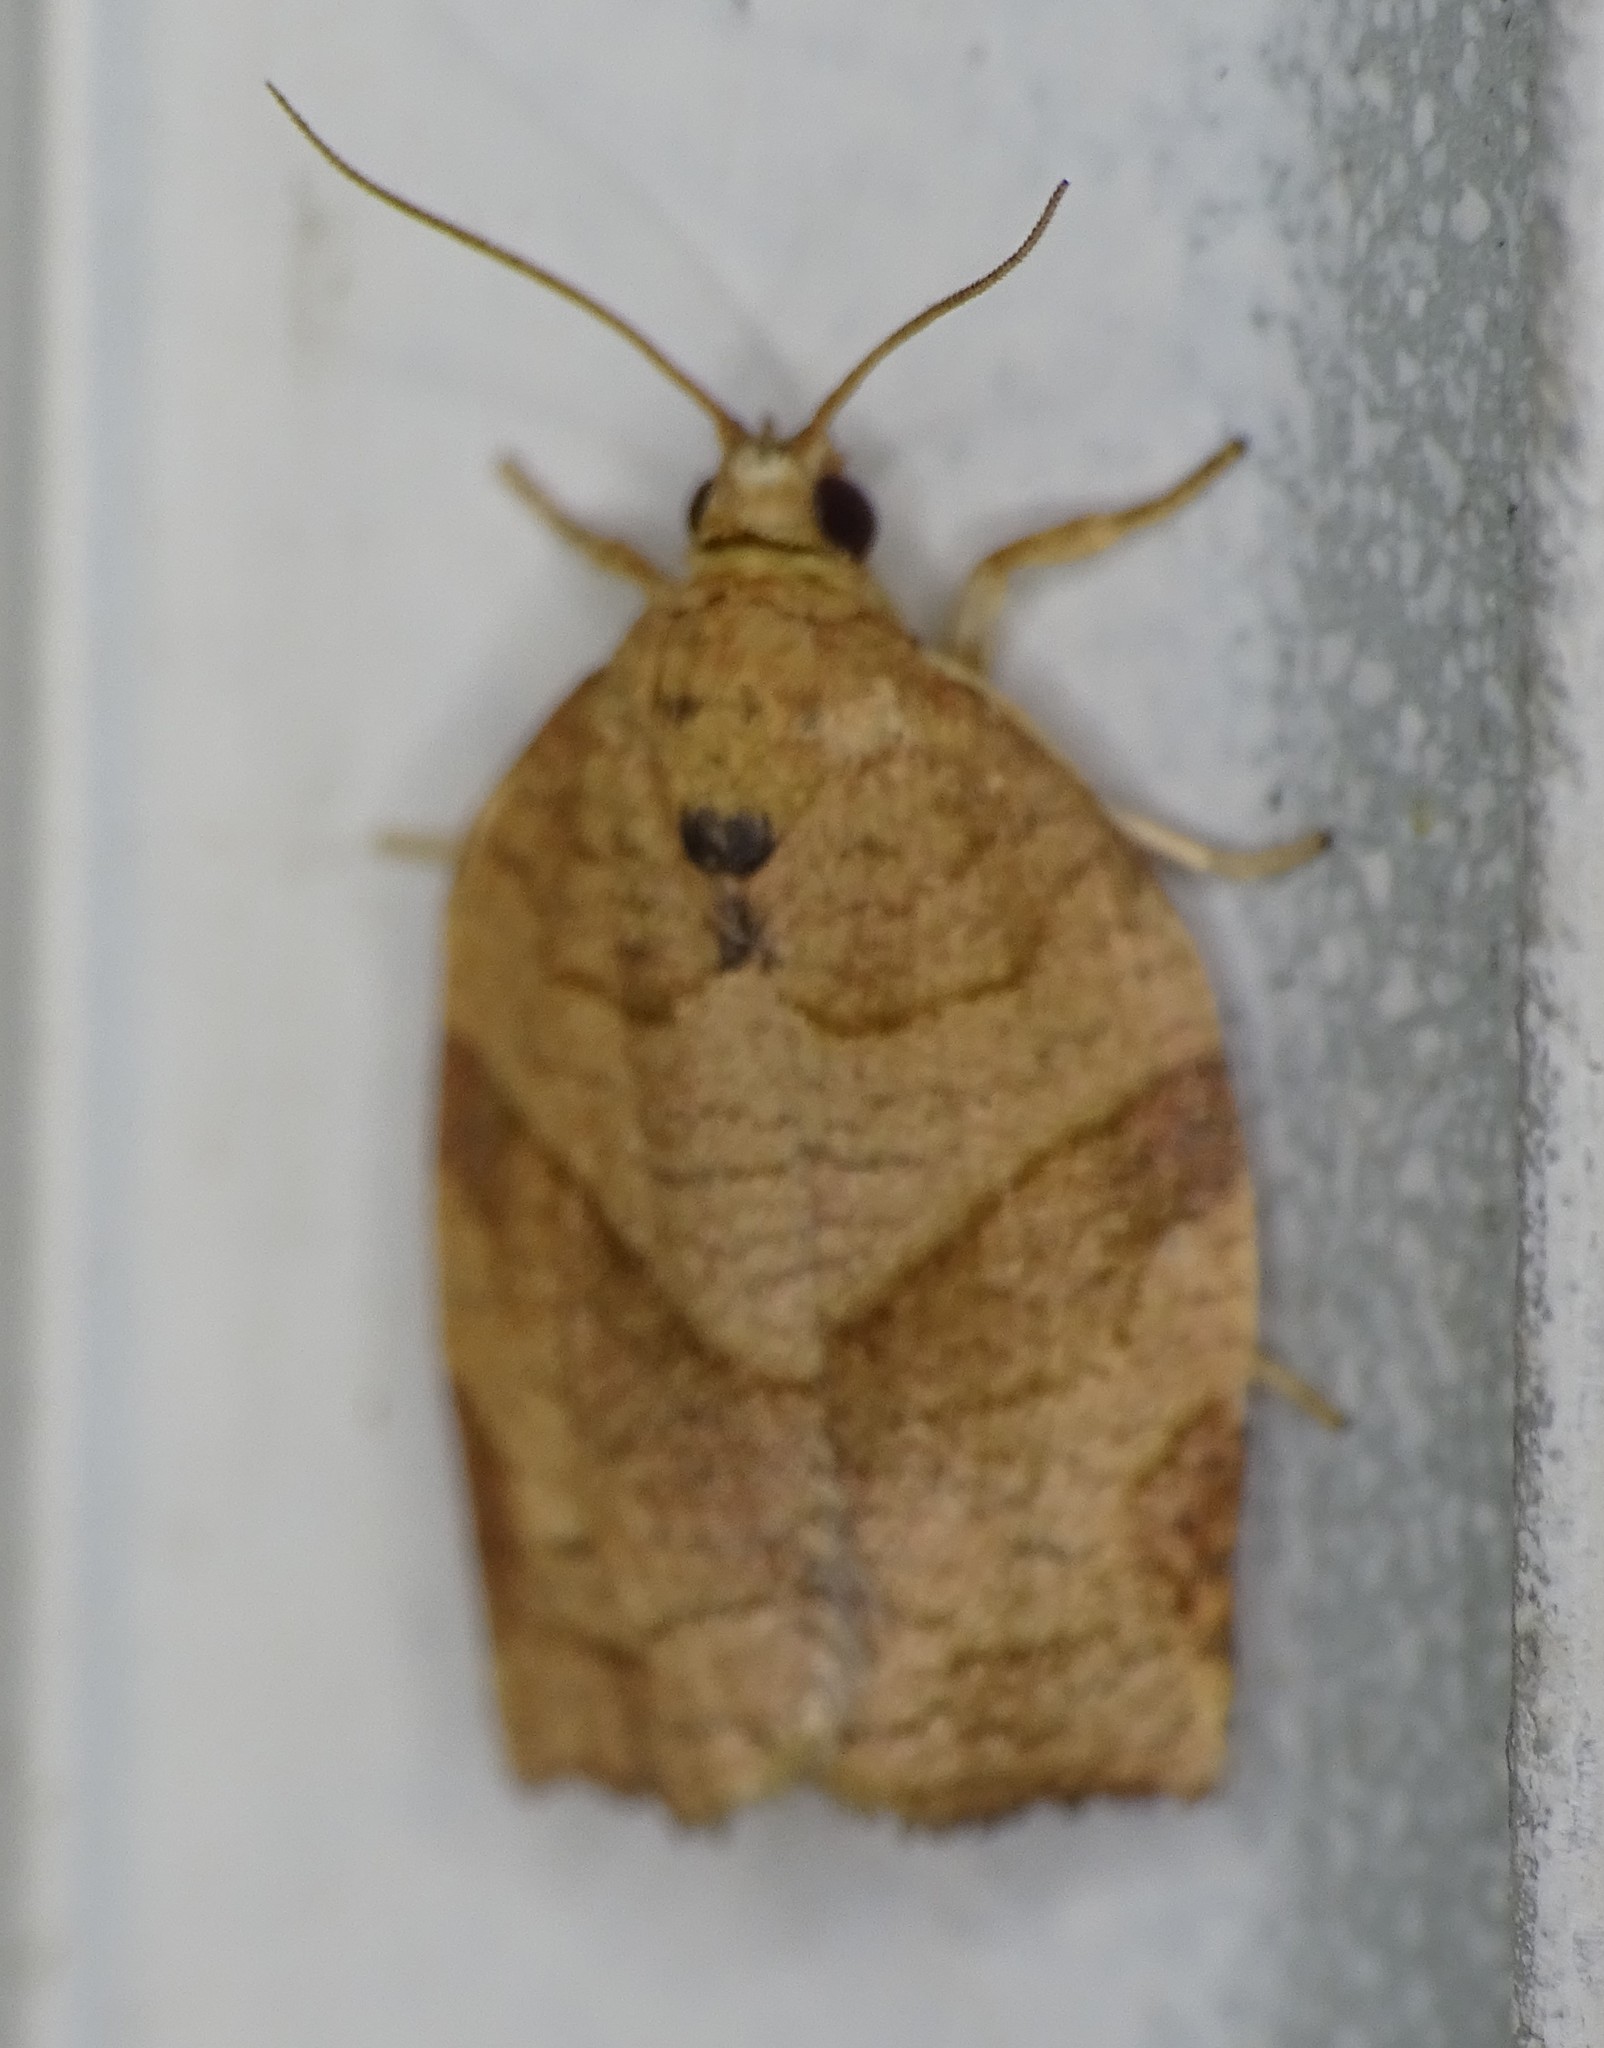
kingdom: Animalia
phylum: Arthropoda
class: Insecta
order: Lepidoptera
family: Tortricidae
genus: Choristoneura
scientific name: Choristoneura rosaceana
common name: Oblique-banded leafroller moth
